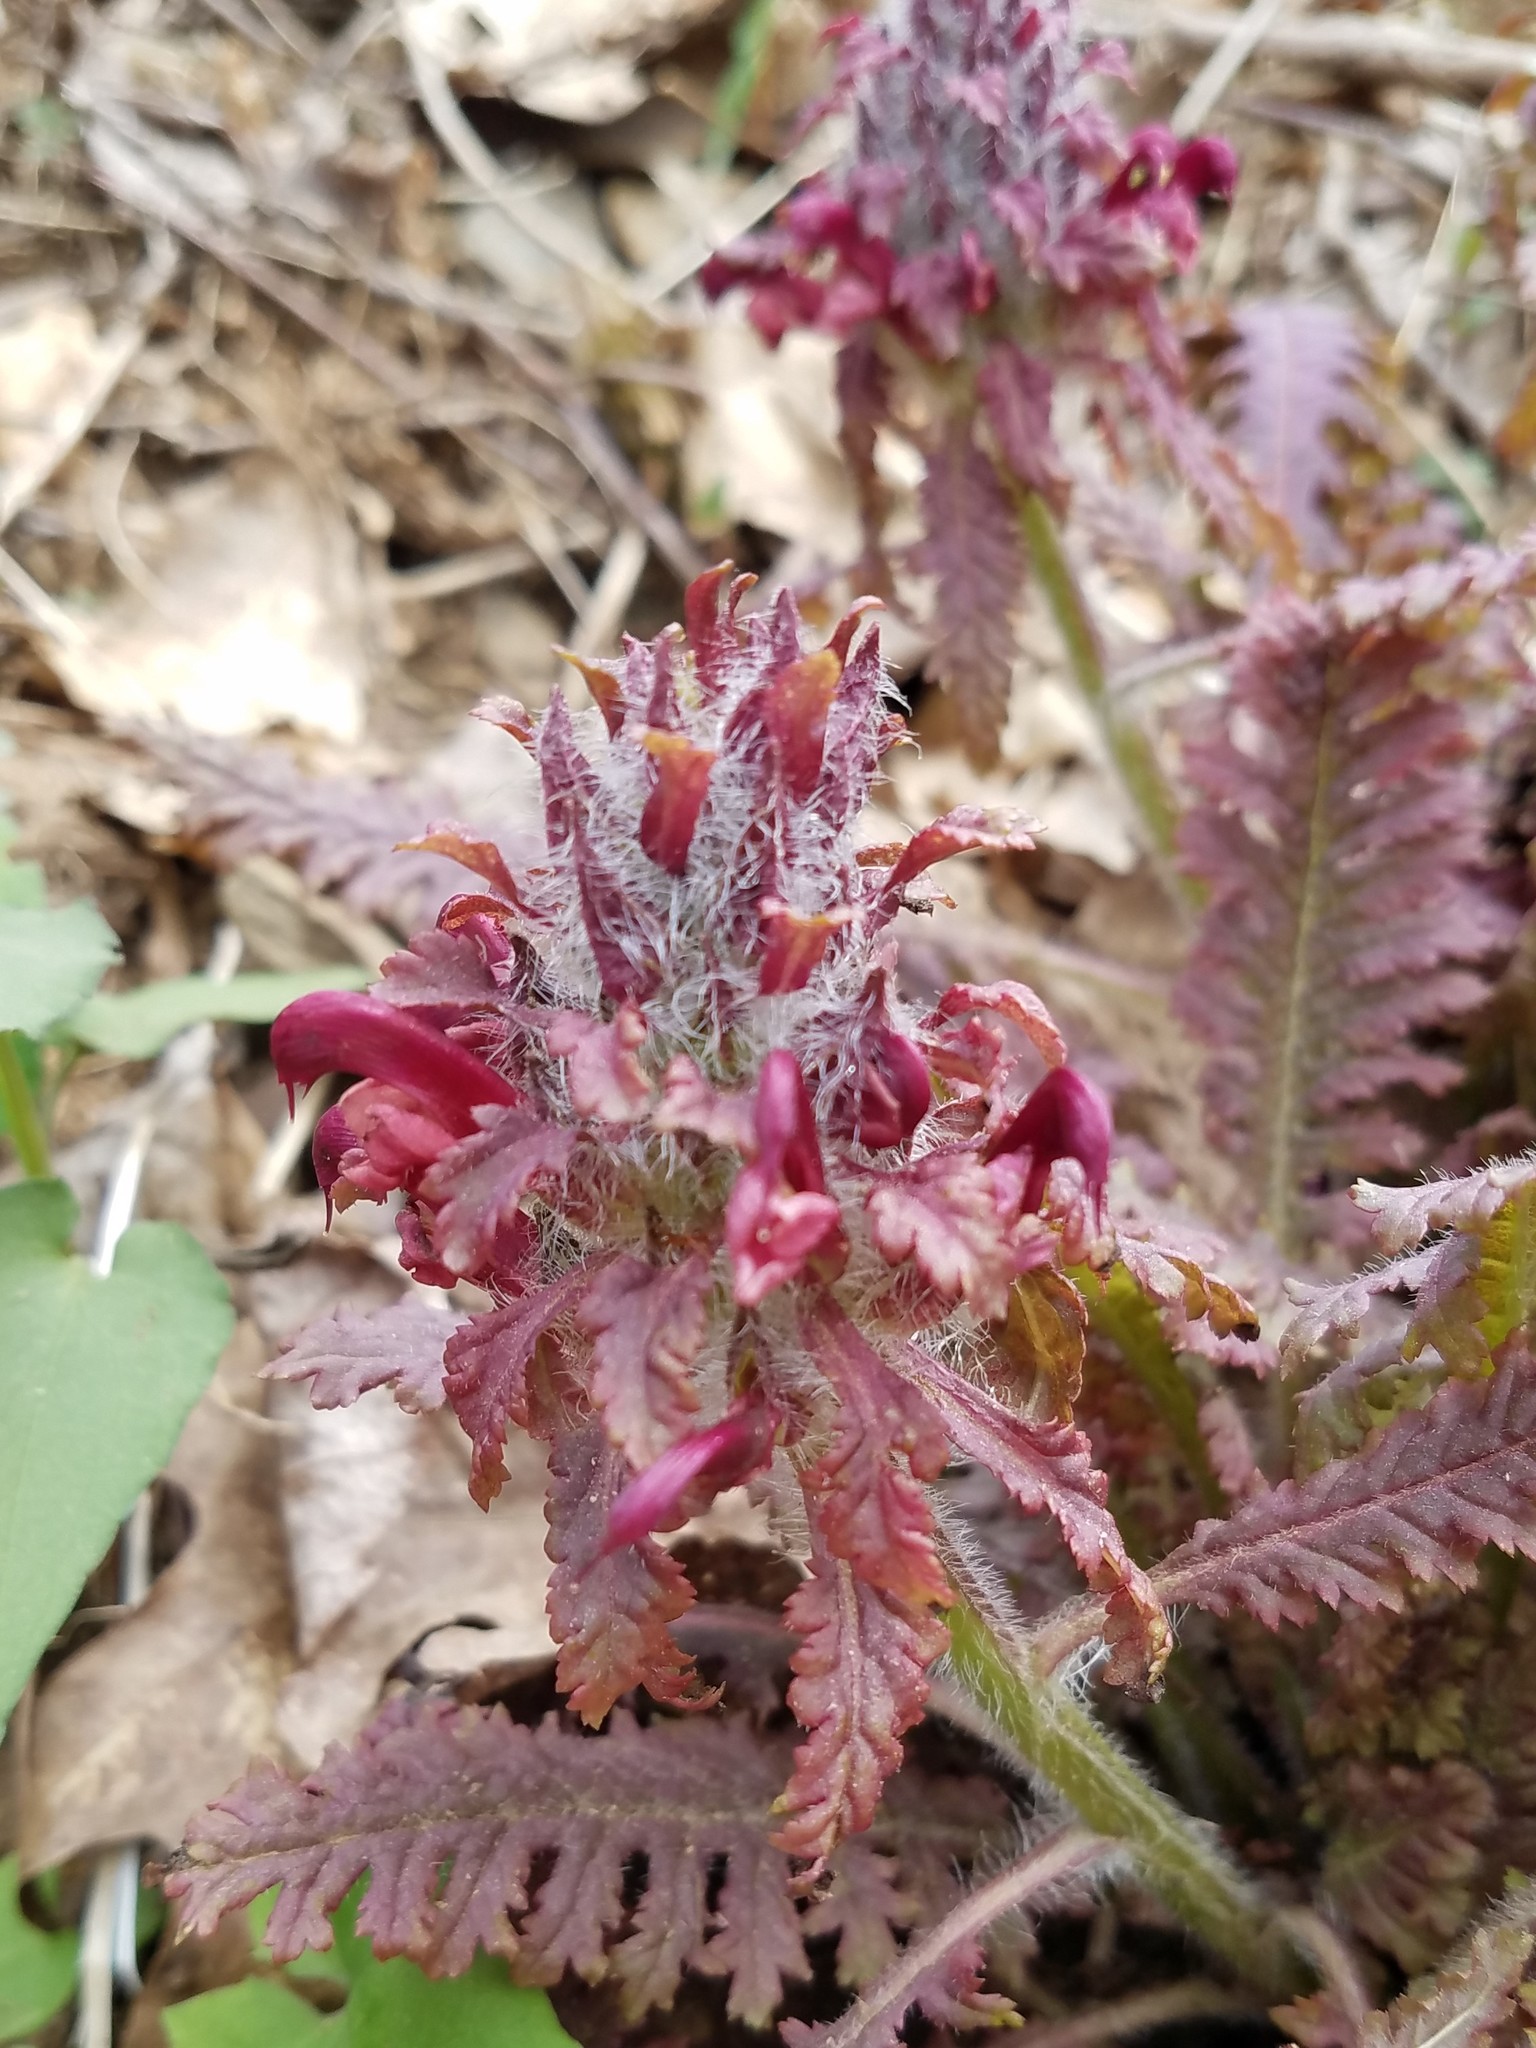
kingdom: Plantae
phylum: Tracheophyta
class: Magnoliopsida
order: Lamiales
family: Orobanchaceae
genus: Pedicularis
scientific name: Pedicularis canadensis
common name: Early lousewort
